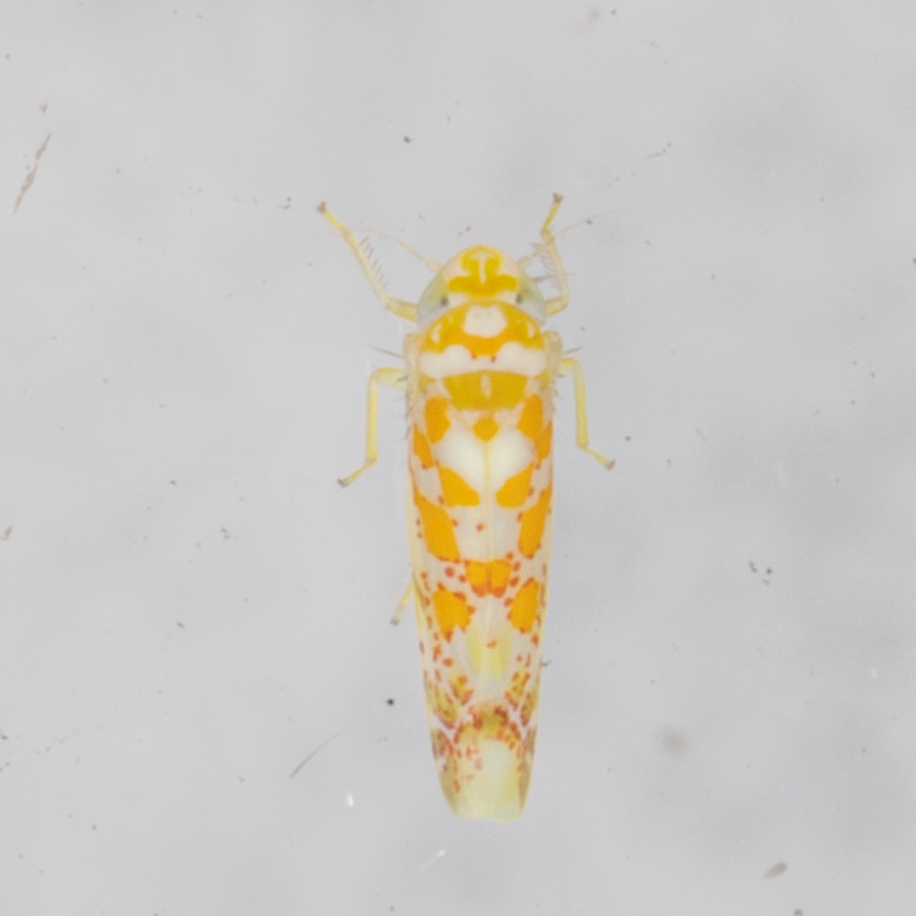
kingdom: Animalia
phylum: Arthropoda
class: Insecta
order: Hemiptera
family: Cicadellidae
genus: Dikrella
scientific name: Dikrella maculata
